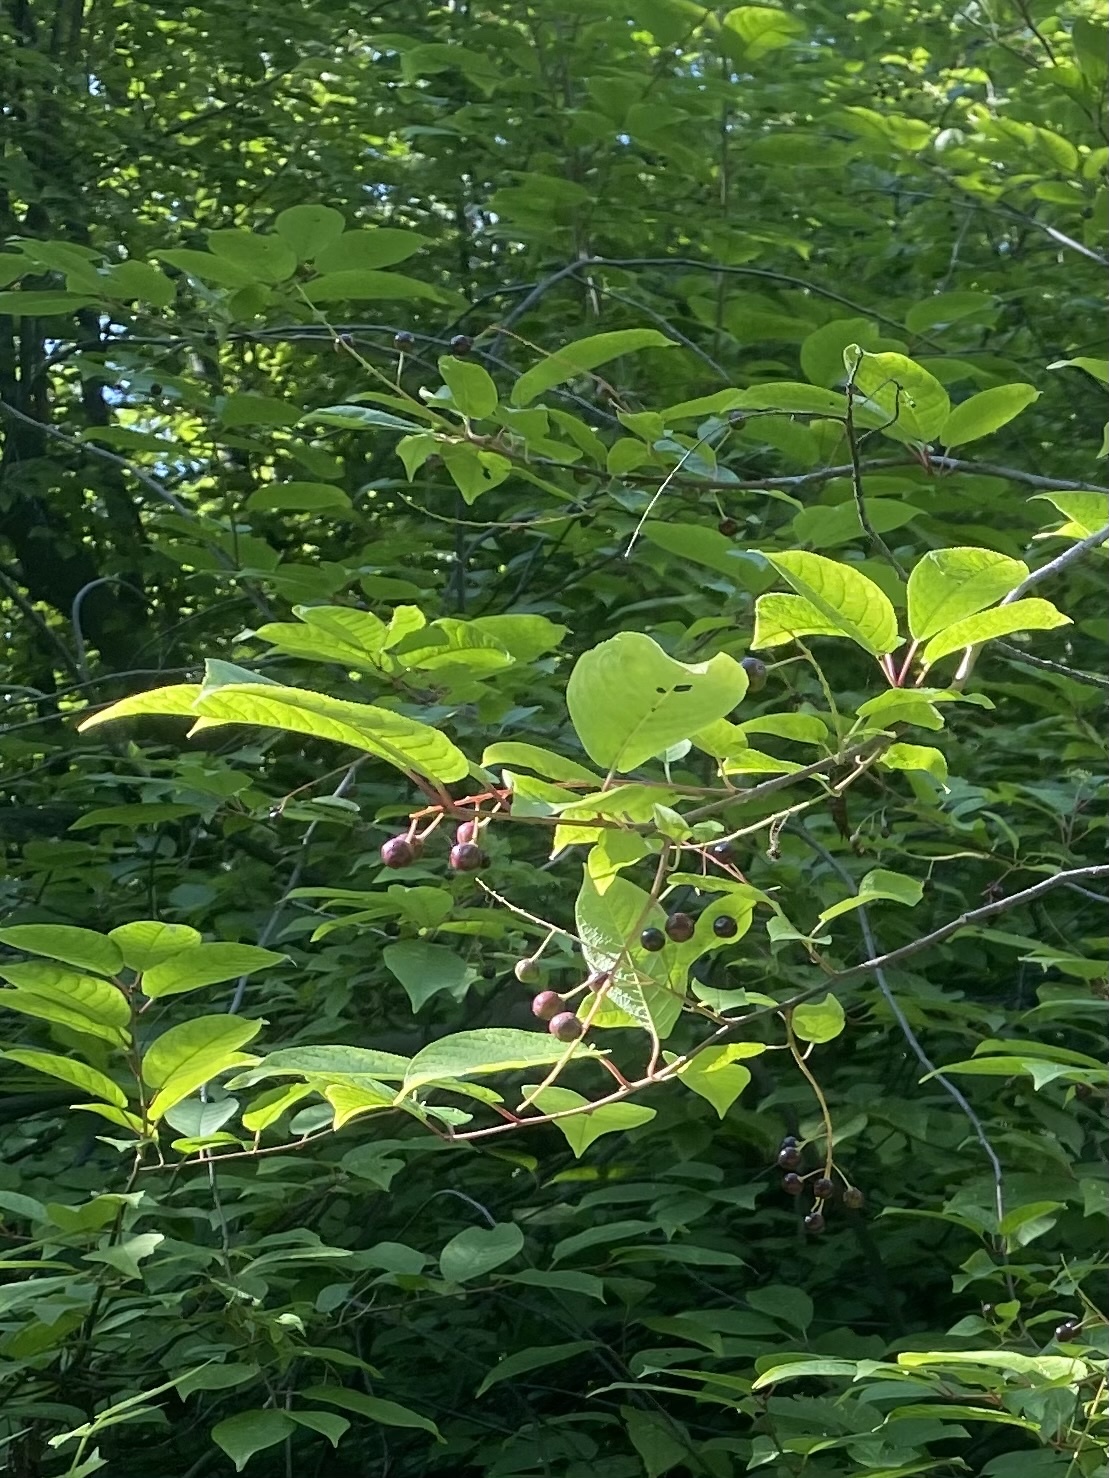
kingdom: Plantae
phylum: Tracheophyta
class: Magnoliopsida
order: Rosales
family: Rosaceae
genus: Prunus
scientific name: Prunus padus
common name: Bird cherry
